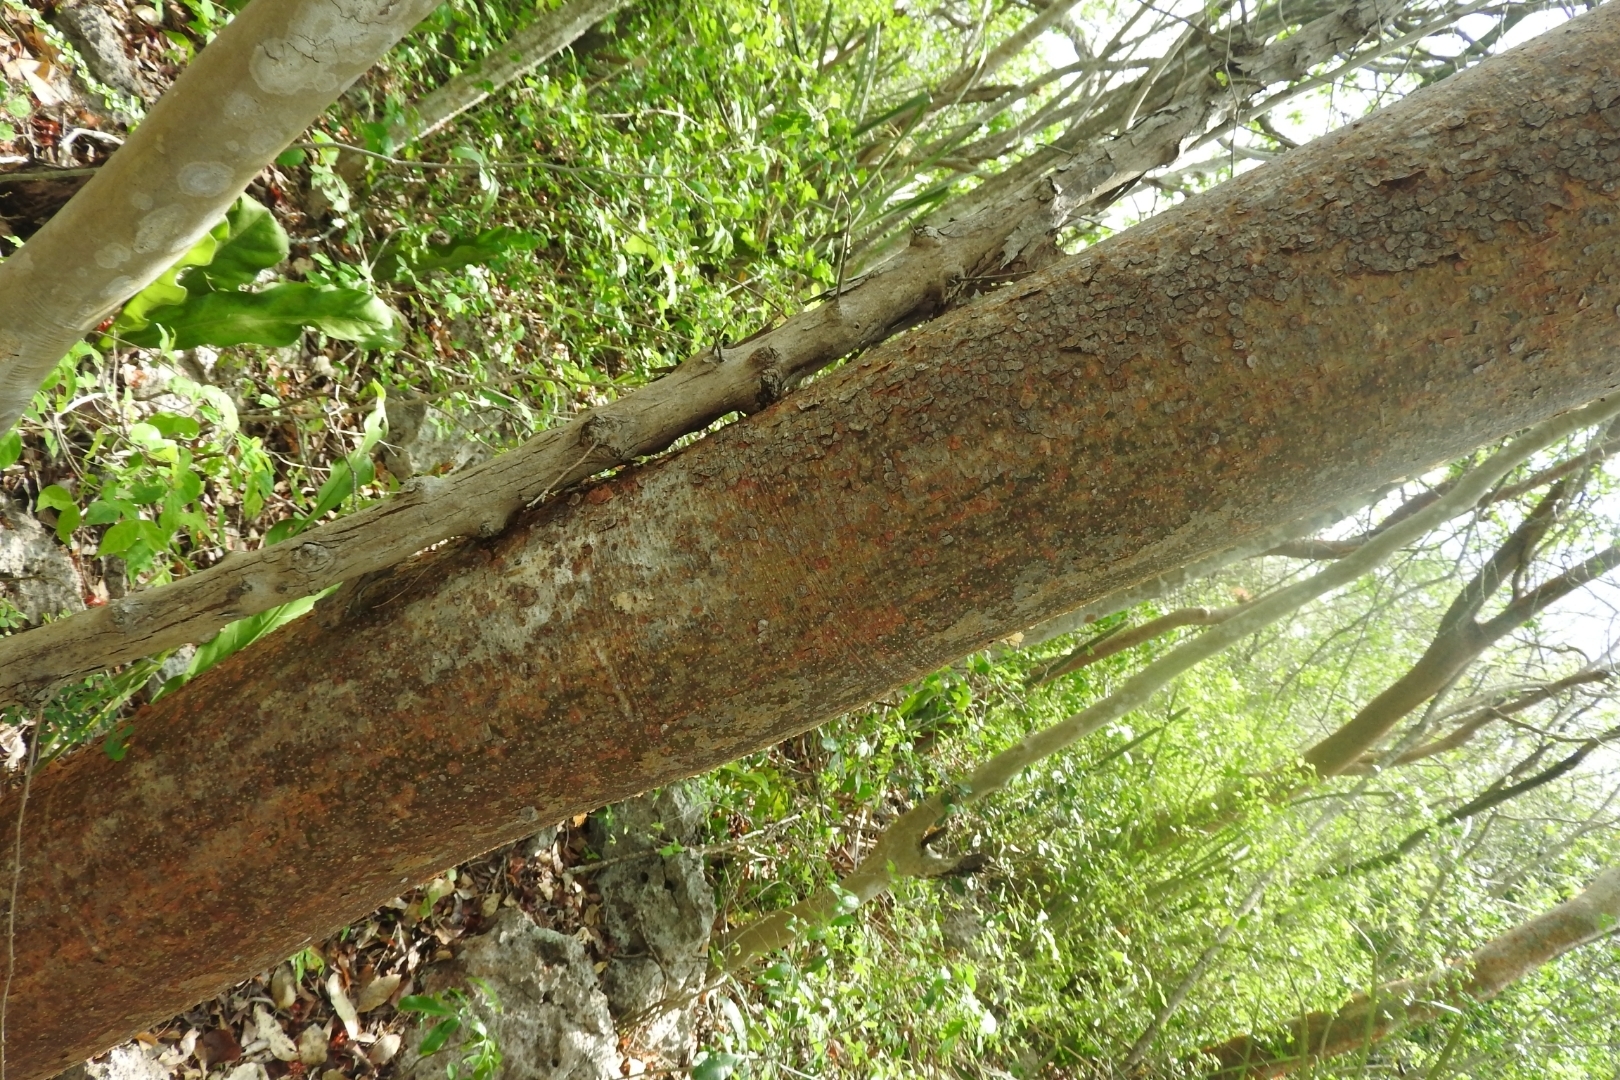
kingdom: Plantae
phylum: Tracheophyta
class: Magnoliopsida
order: Sapindales
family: Burseraceae
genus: Bursera
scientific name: Bursera simaruba
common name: Turpentine tree
